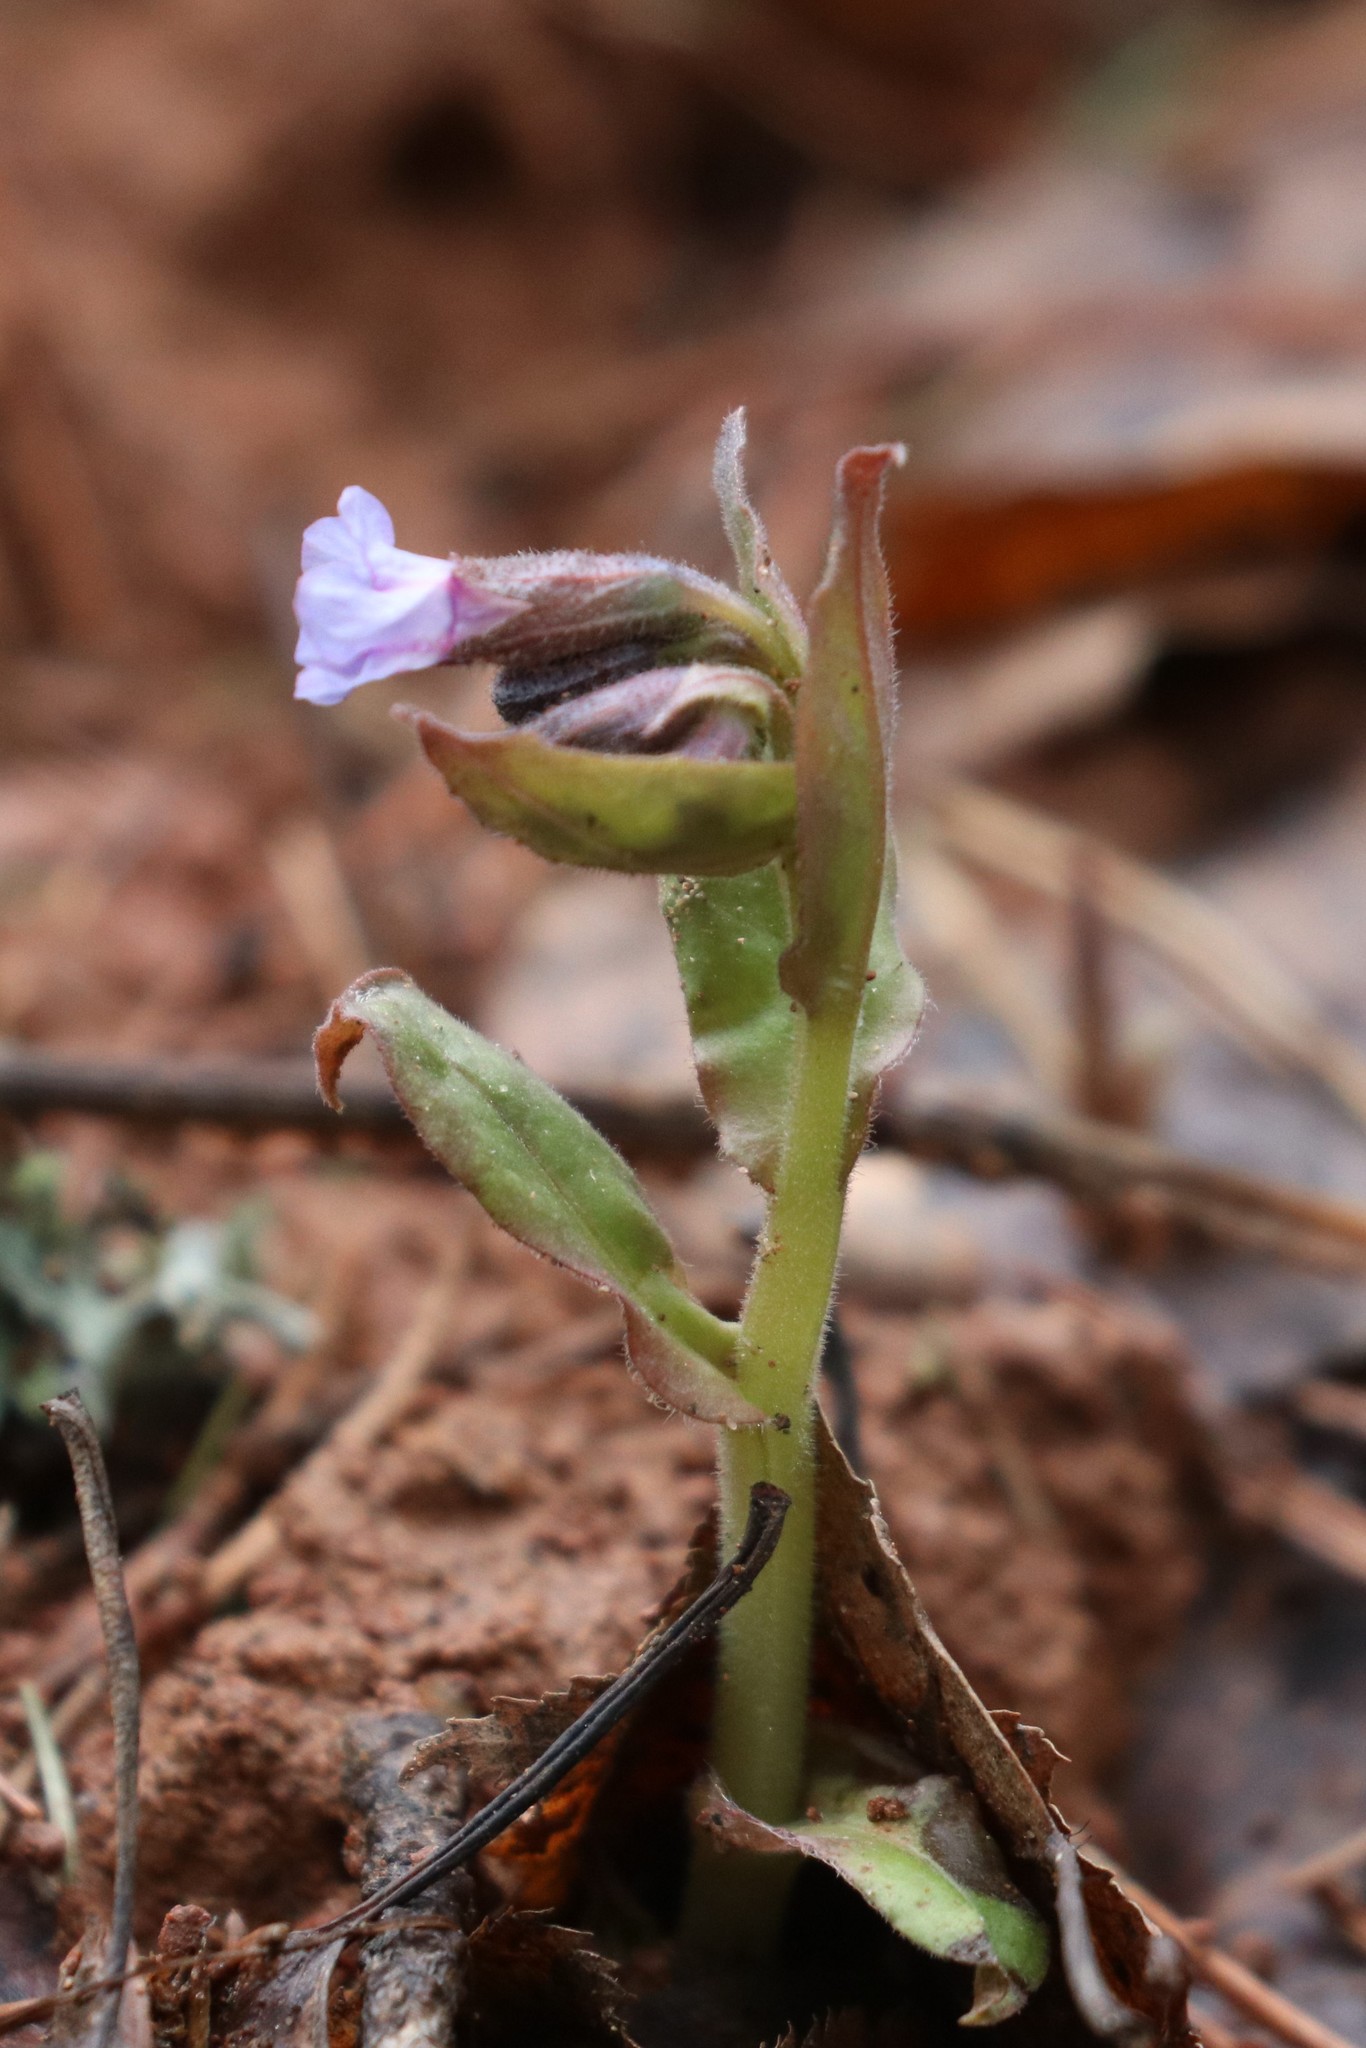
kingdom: Plantae
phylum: Tracheophyta
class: Magnoliopsida
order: Boraginales
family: Boraginaceae
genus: Pulmonaria
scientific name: Pulmonaria obscura
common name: Suffolk lungwort
